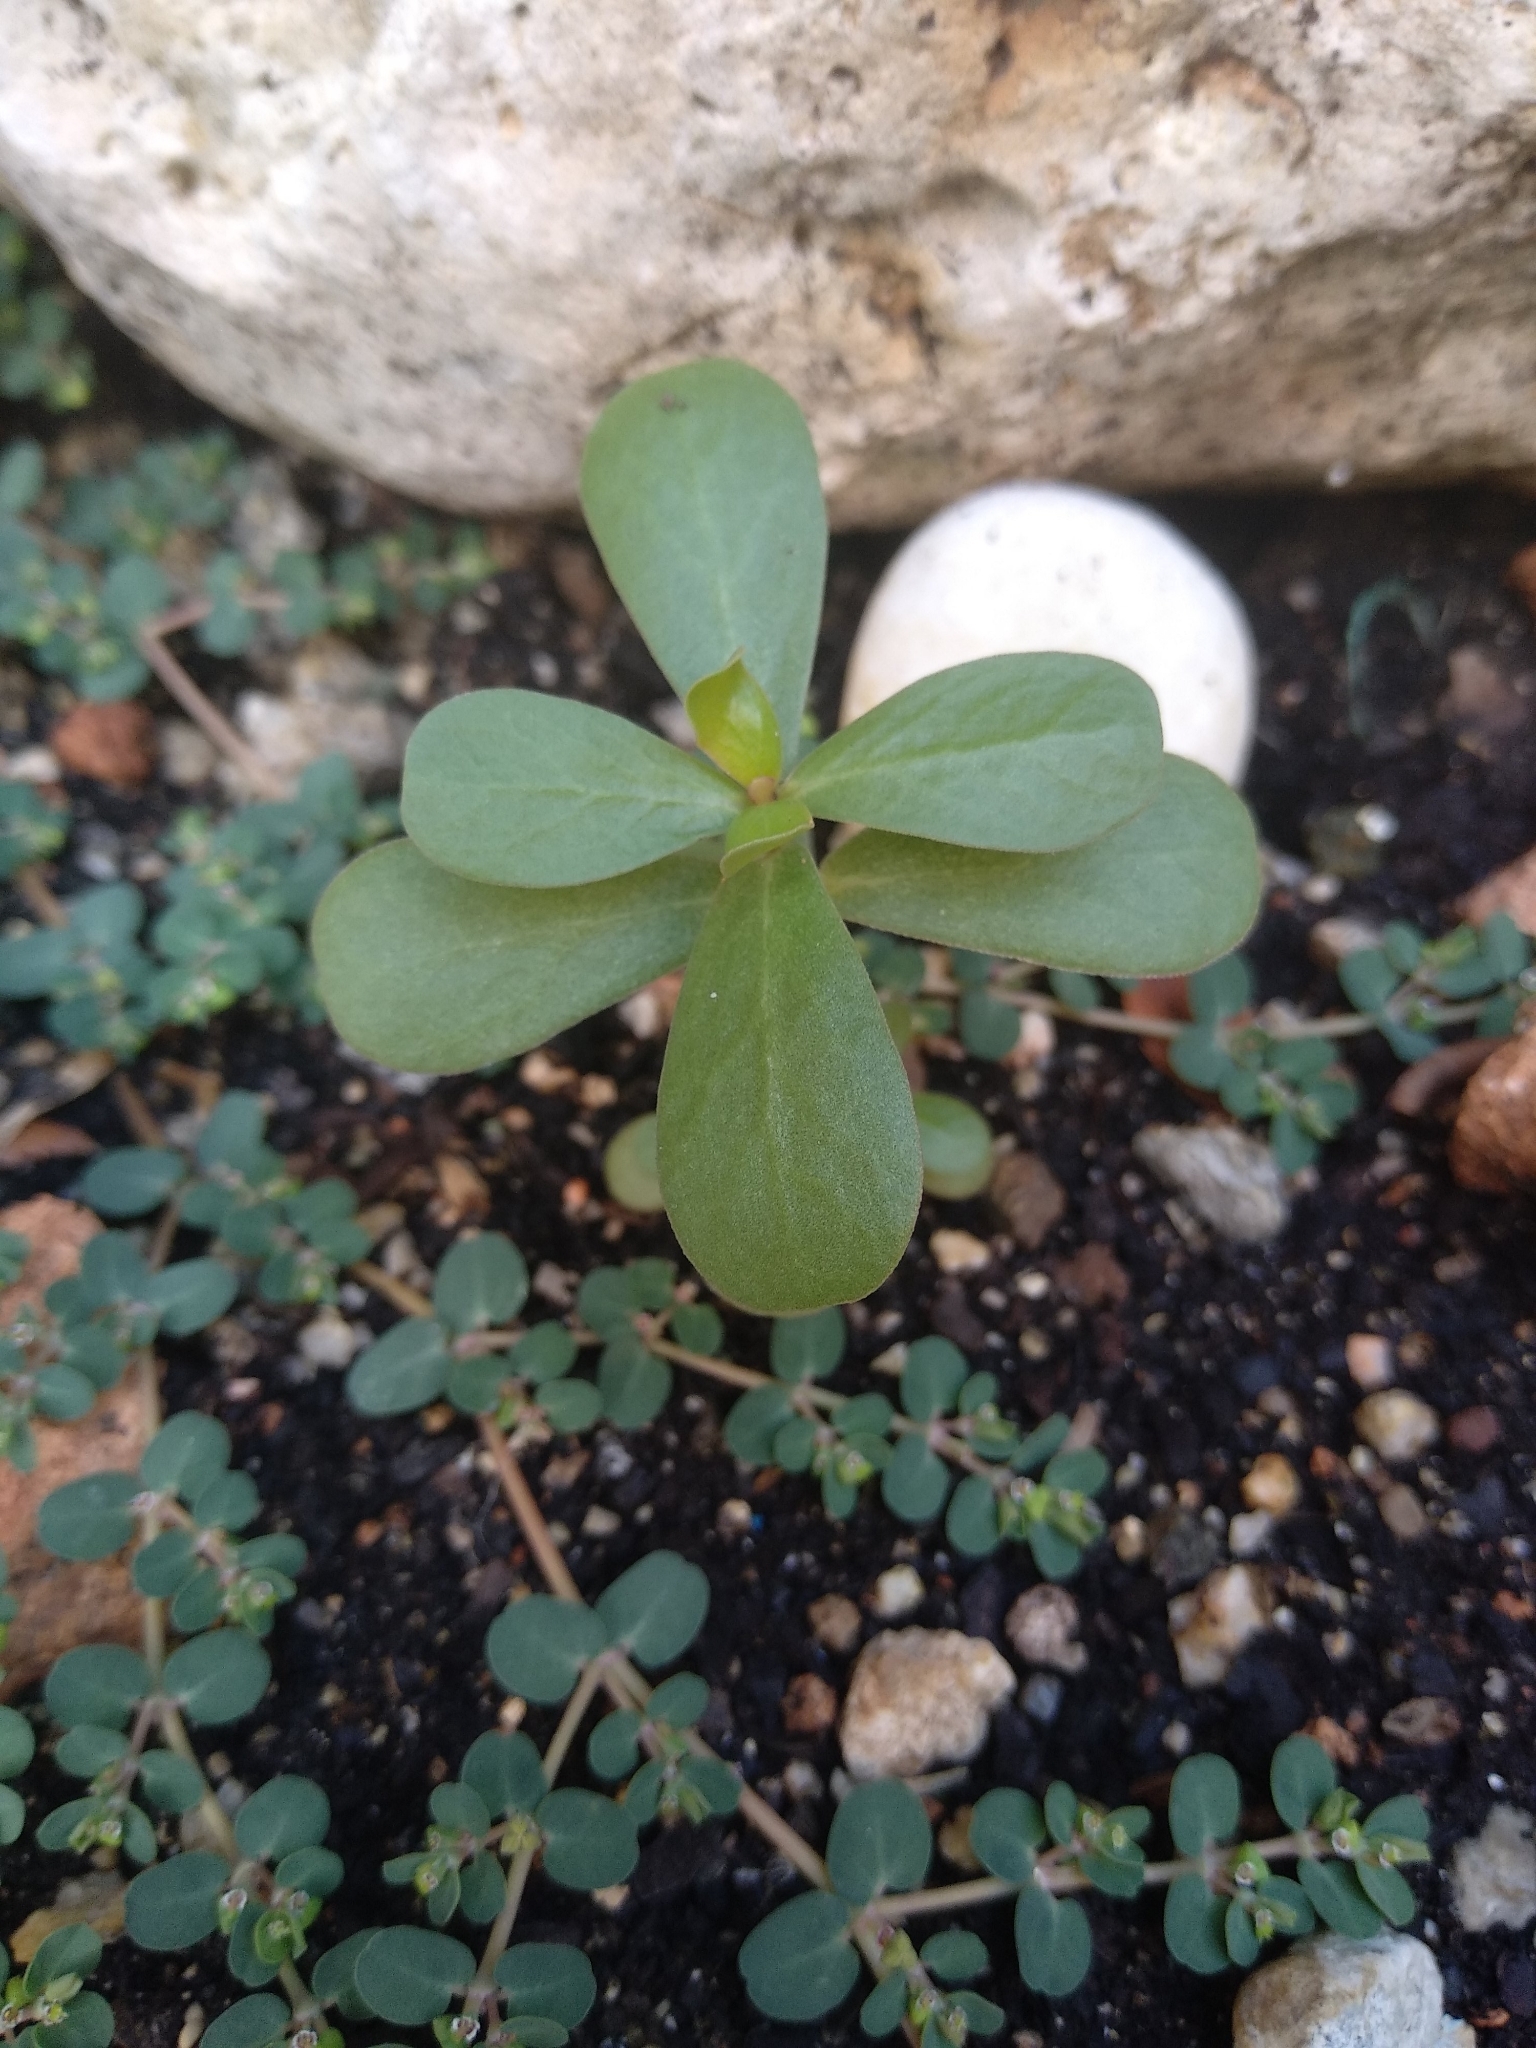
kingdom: Plantae
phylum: Tracheophyta
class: Magnoliopsida
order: Caryophyllales
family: Portulacaceae
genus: Portulaca
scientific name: Portulaca oleracea
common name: Common purslane
